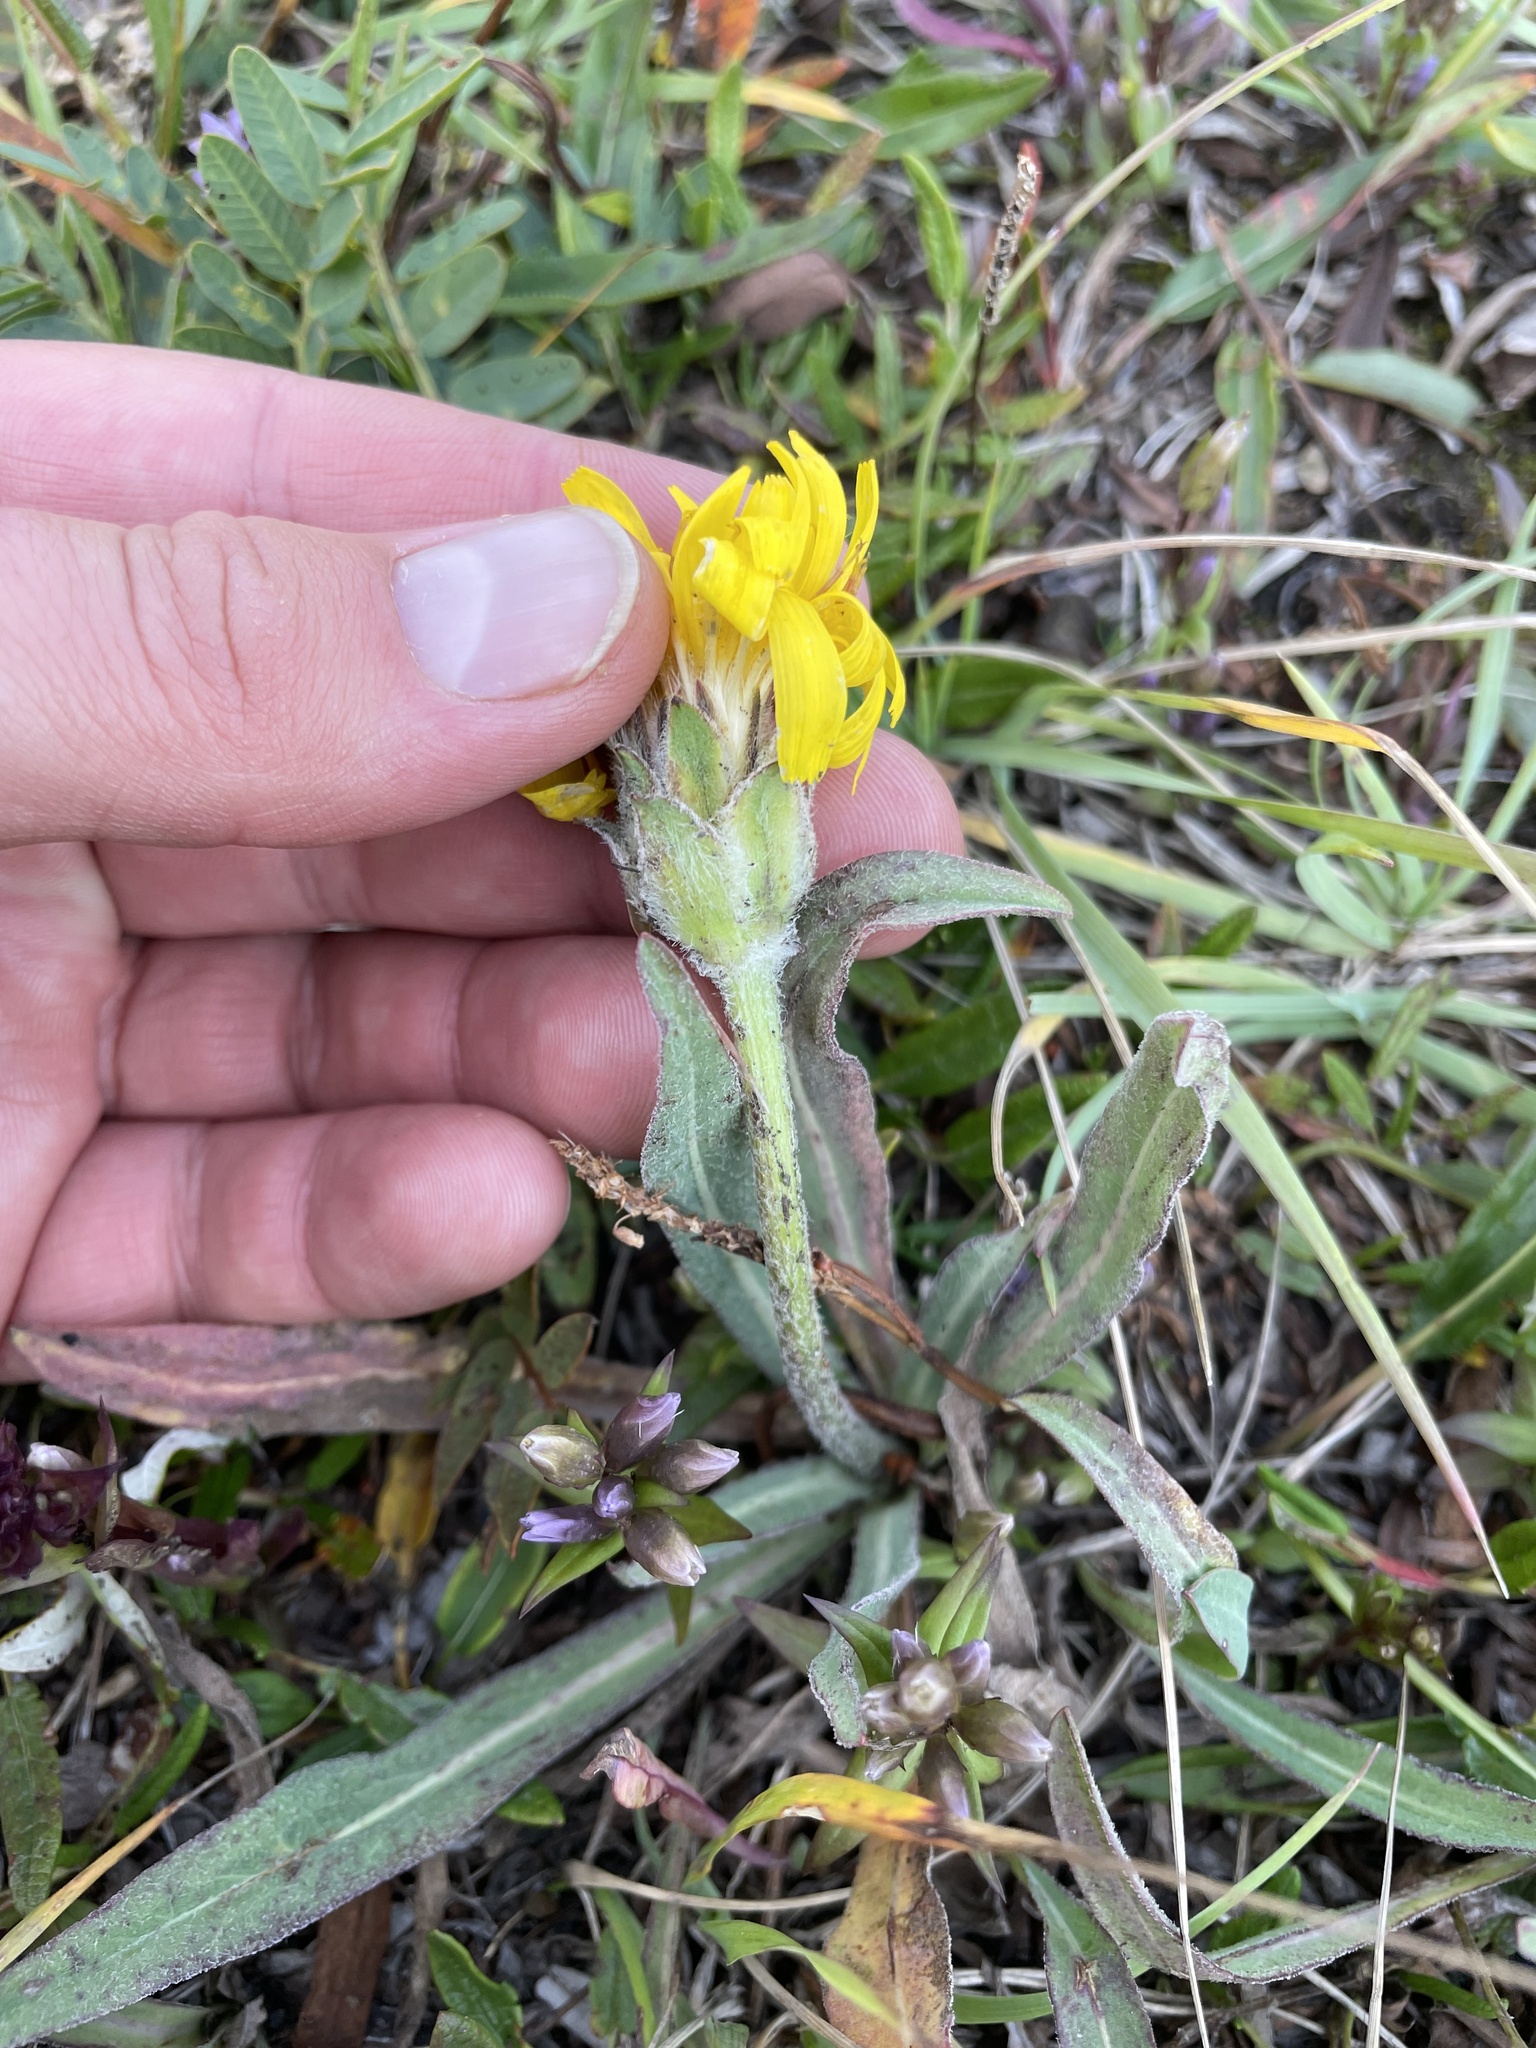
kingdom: Plantae
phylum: Tracheophyta
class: Magnoliopsida
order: Asterales
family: Asteraceae
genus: Agoseris
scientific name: Agoseris glauca
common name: Prairie agoseris
